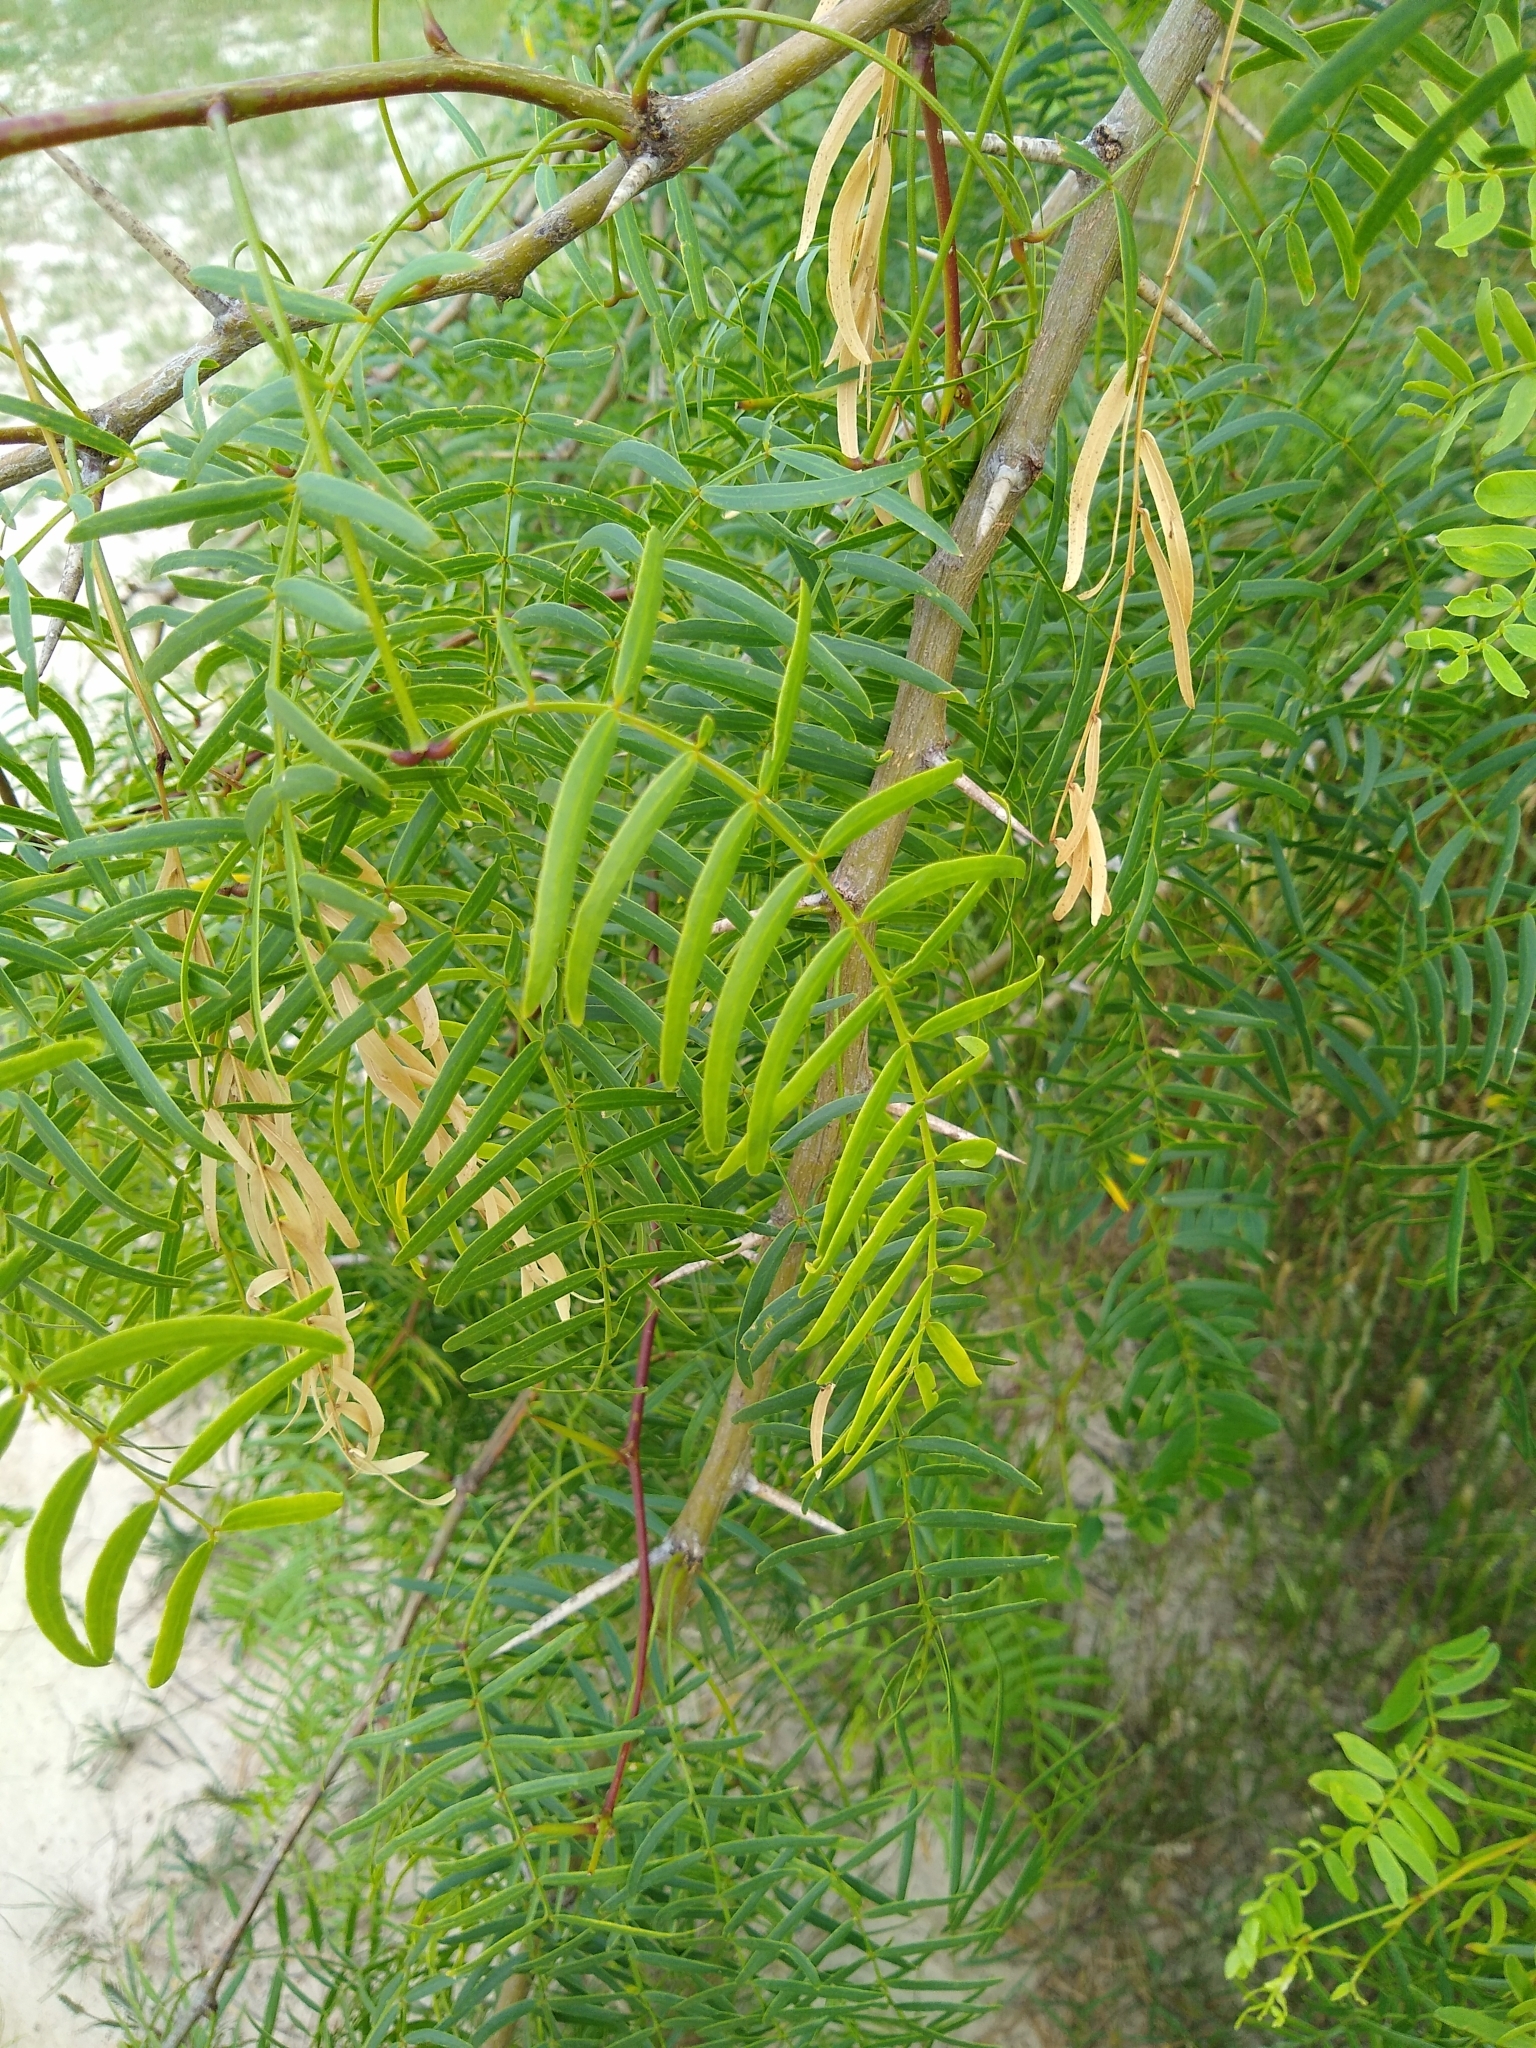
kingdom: Plantae
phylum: Tracheophyta
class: Magnoliopsida
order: Fabales
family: Fabaceae
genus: Prosopis
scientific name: Prosopis glandulosa
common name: Honey mesquite
